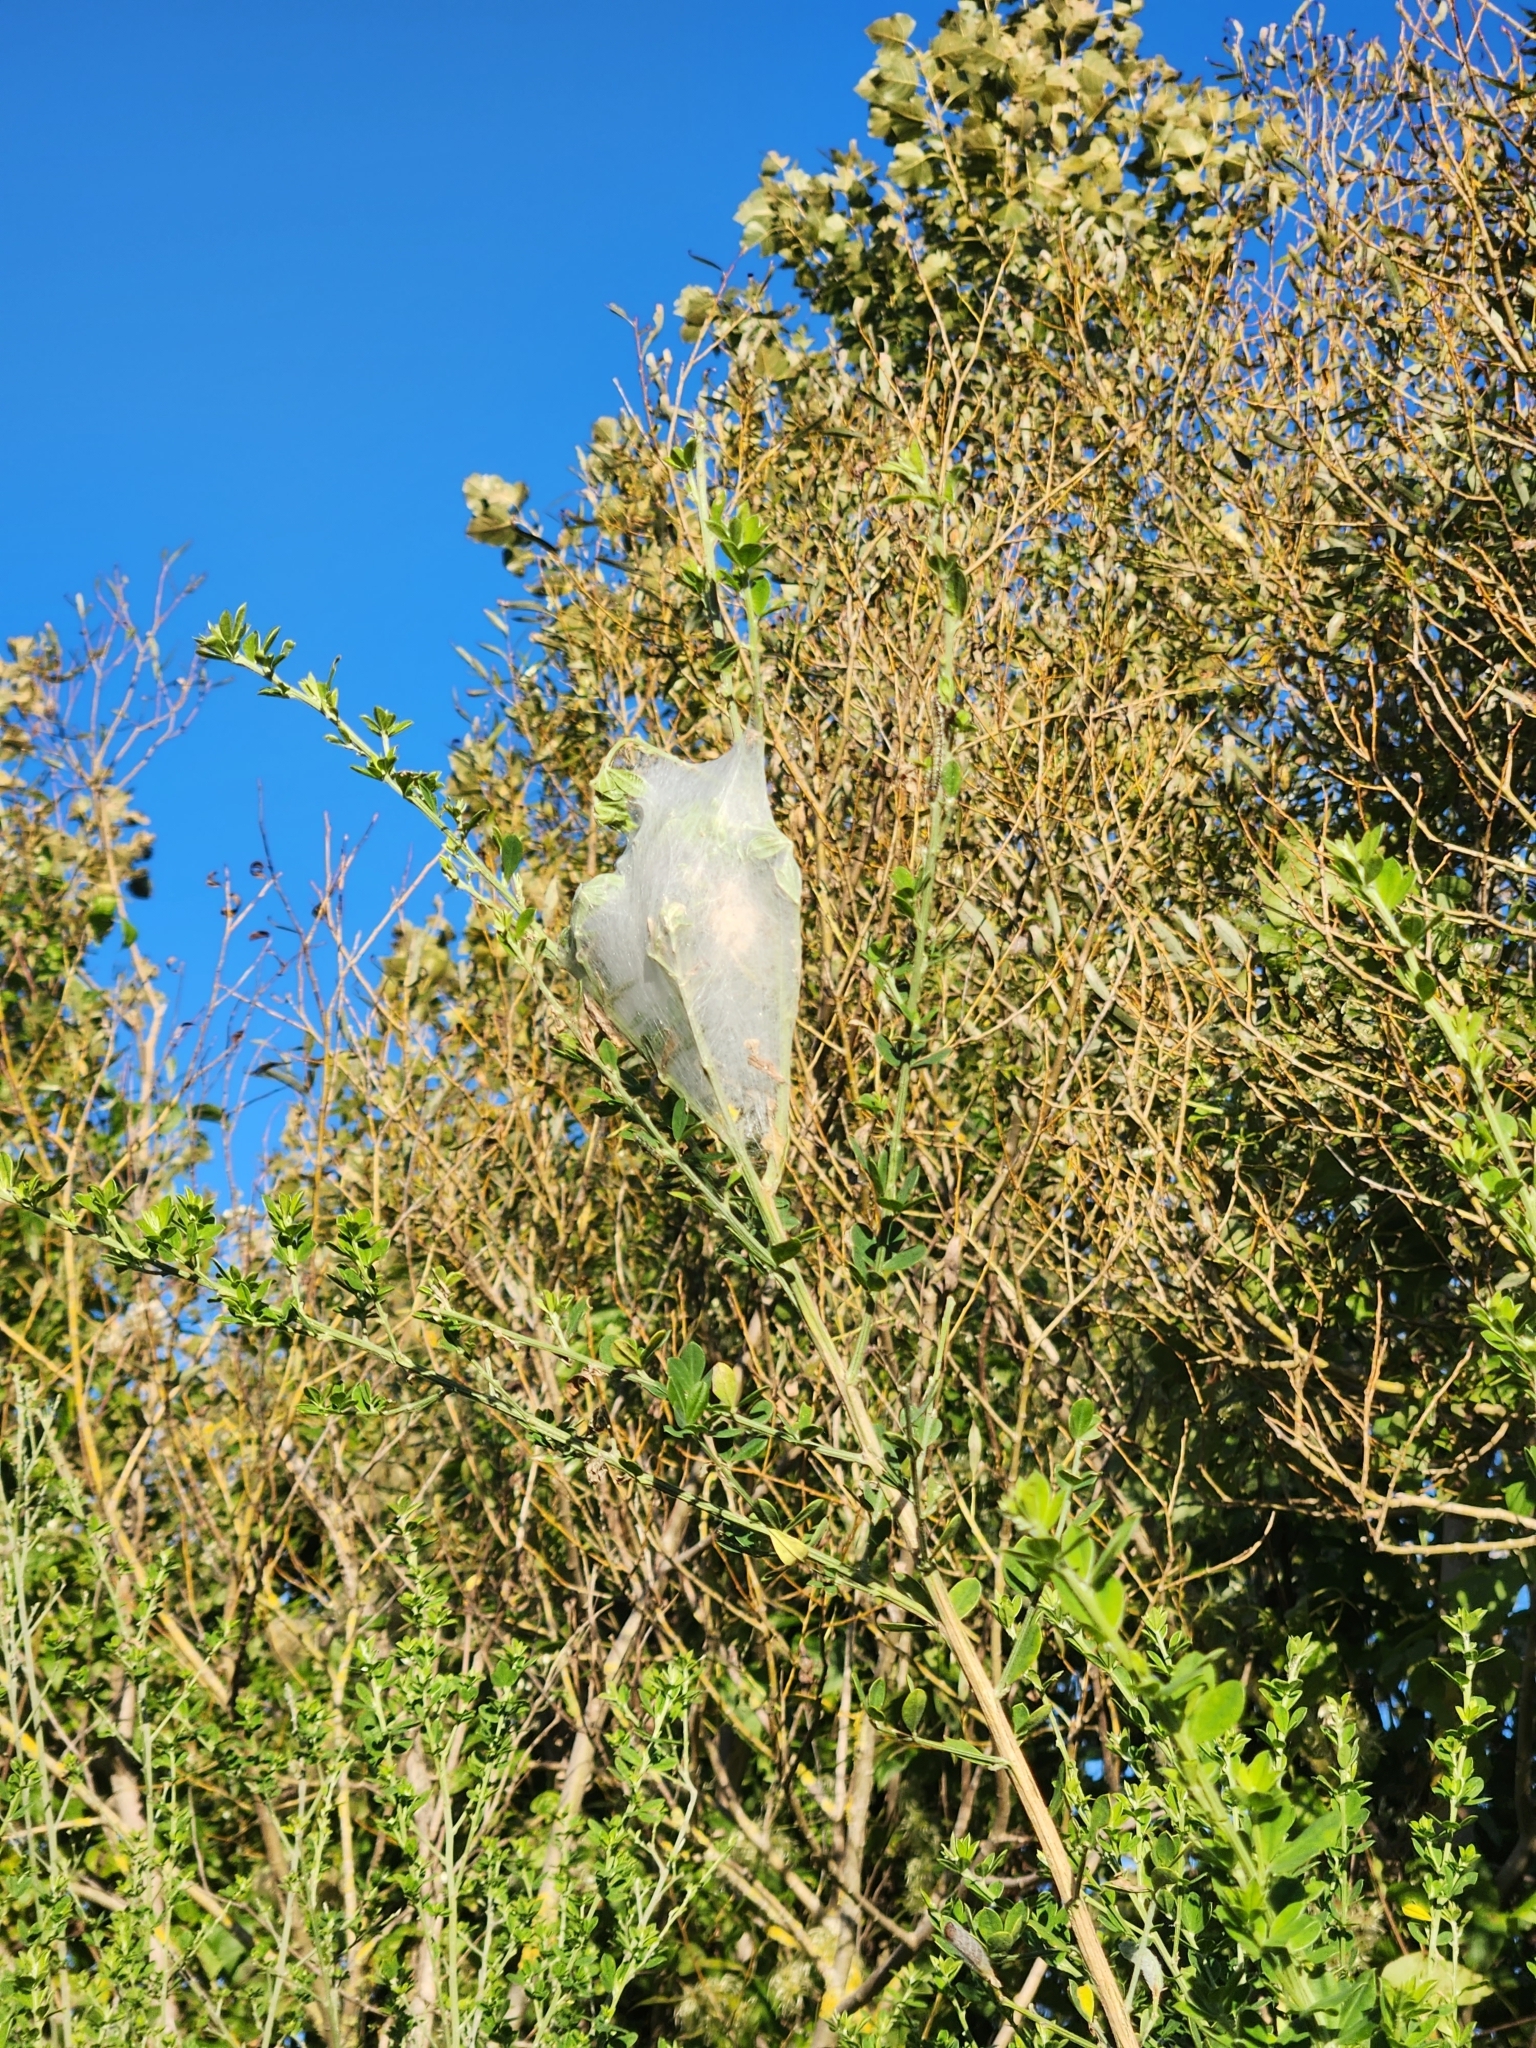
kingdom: Animalia
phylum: Arthropoda
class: Arachnida
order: Araneae
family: Pisauridae
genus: Dolomedes
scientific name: Dolomedes minor
